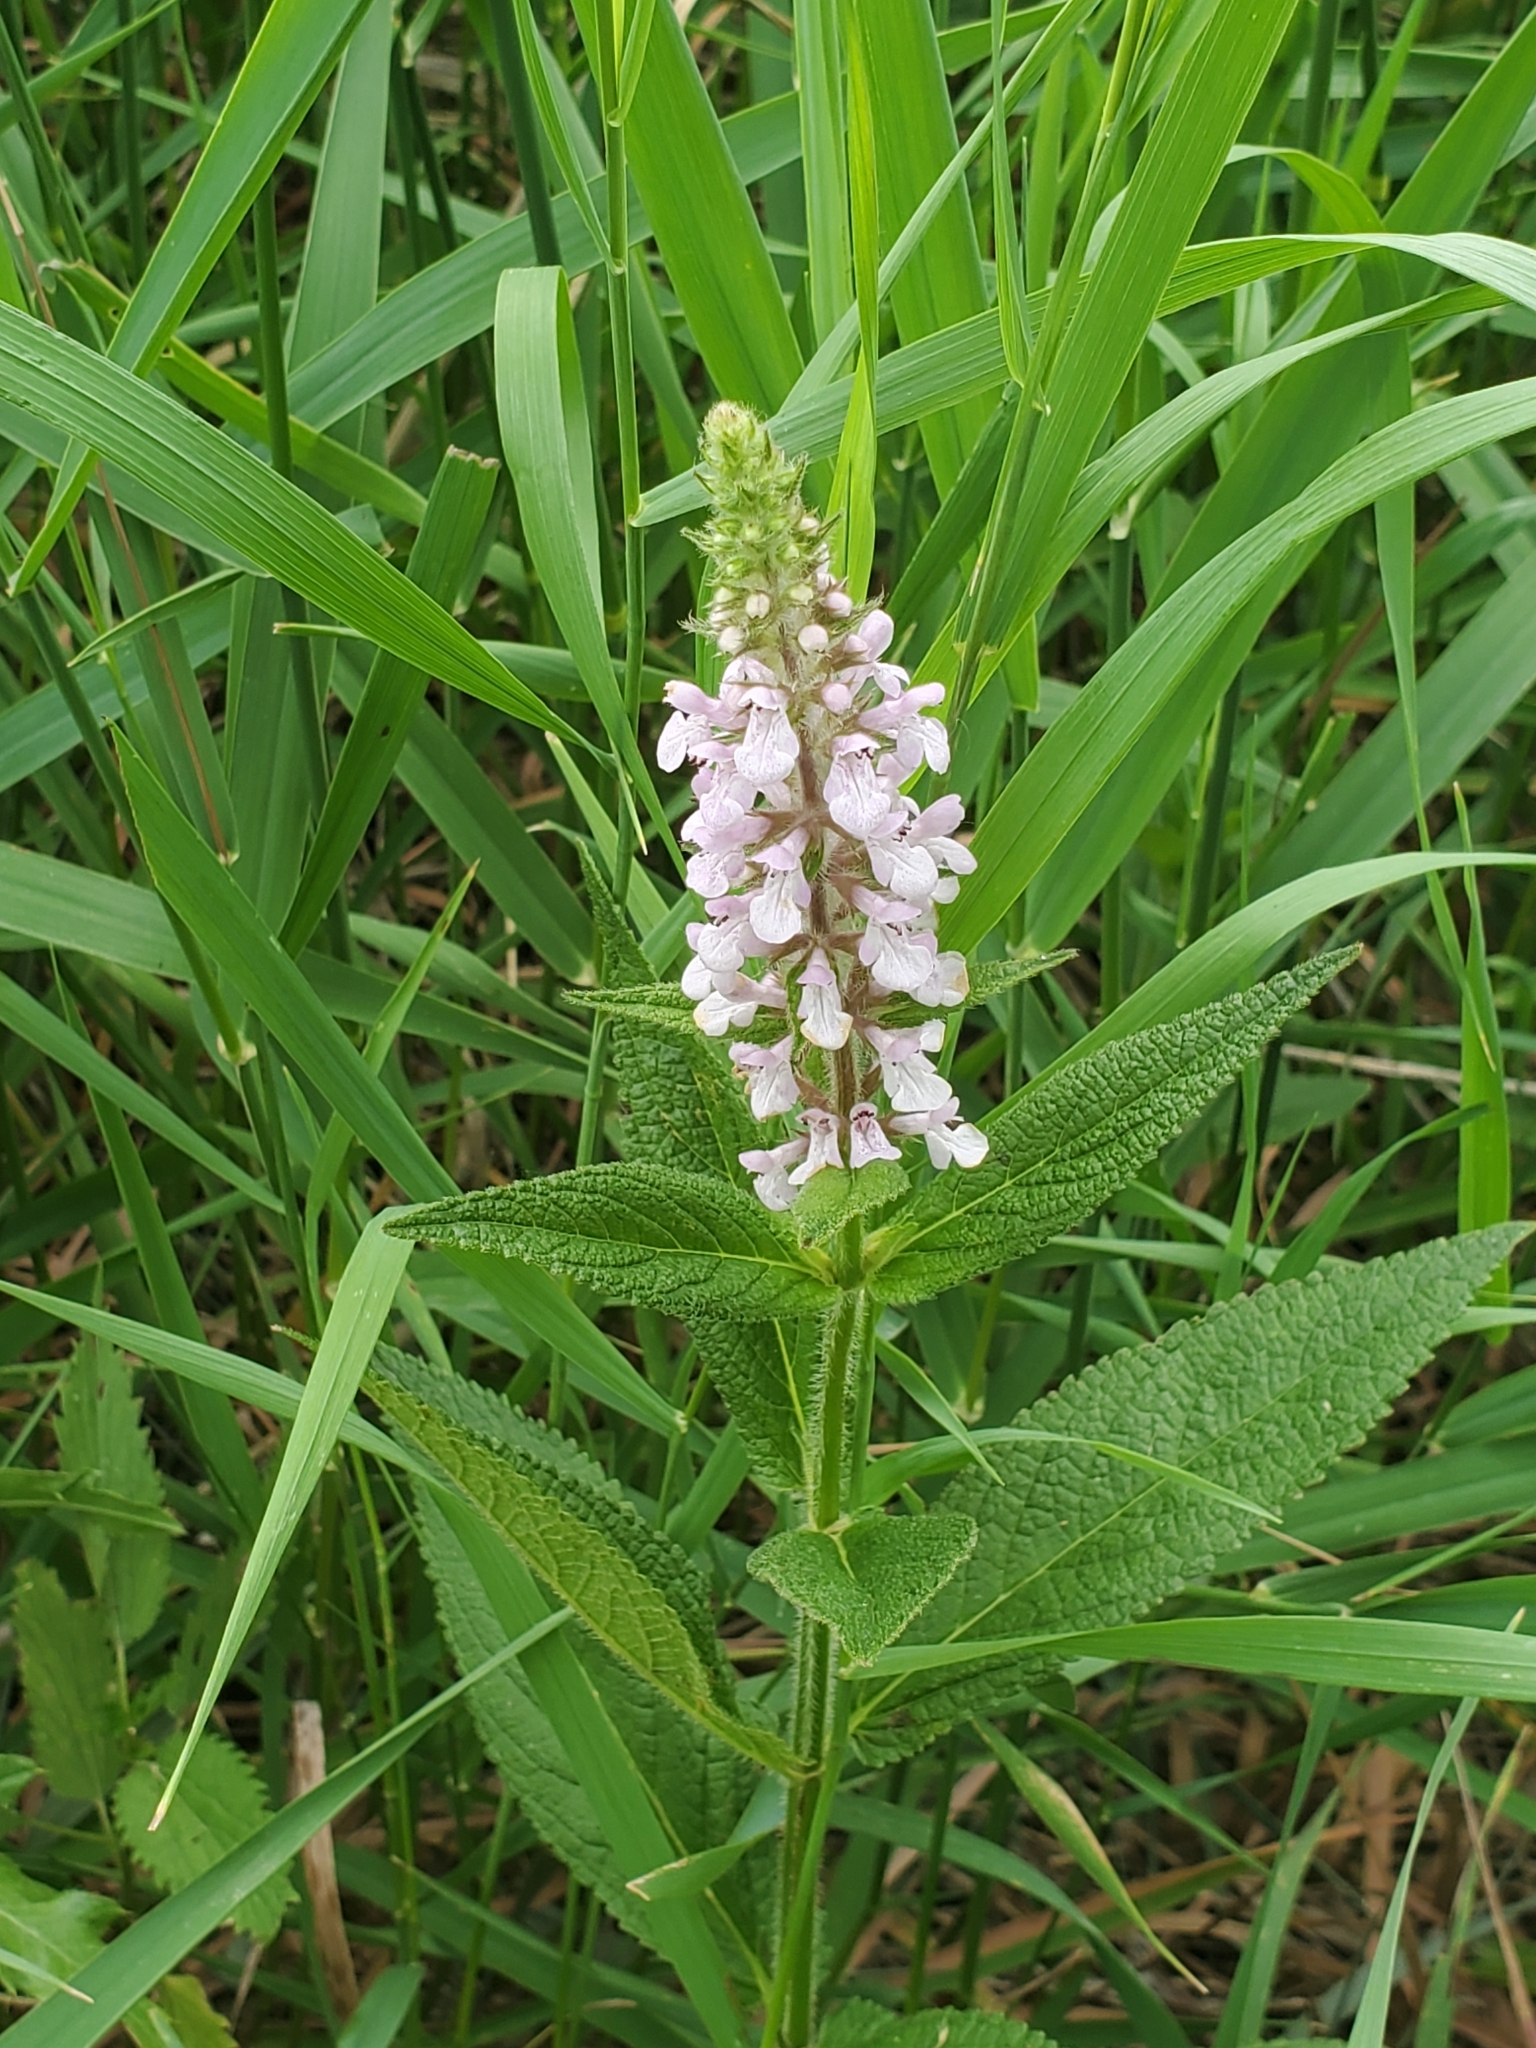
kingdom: Plantae
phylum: Tracheophyta
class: Magnoliopsida
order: Lamiales
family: Lamiaceae
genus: Stachys
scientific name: Stachys hispida
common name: Hispid hedge-nettle
